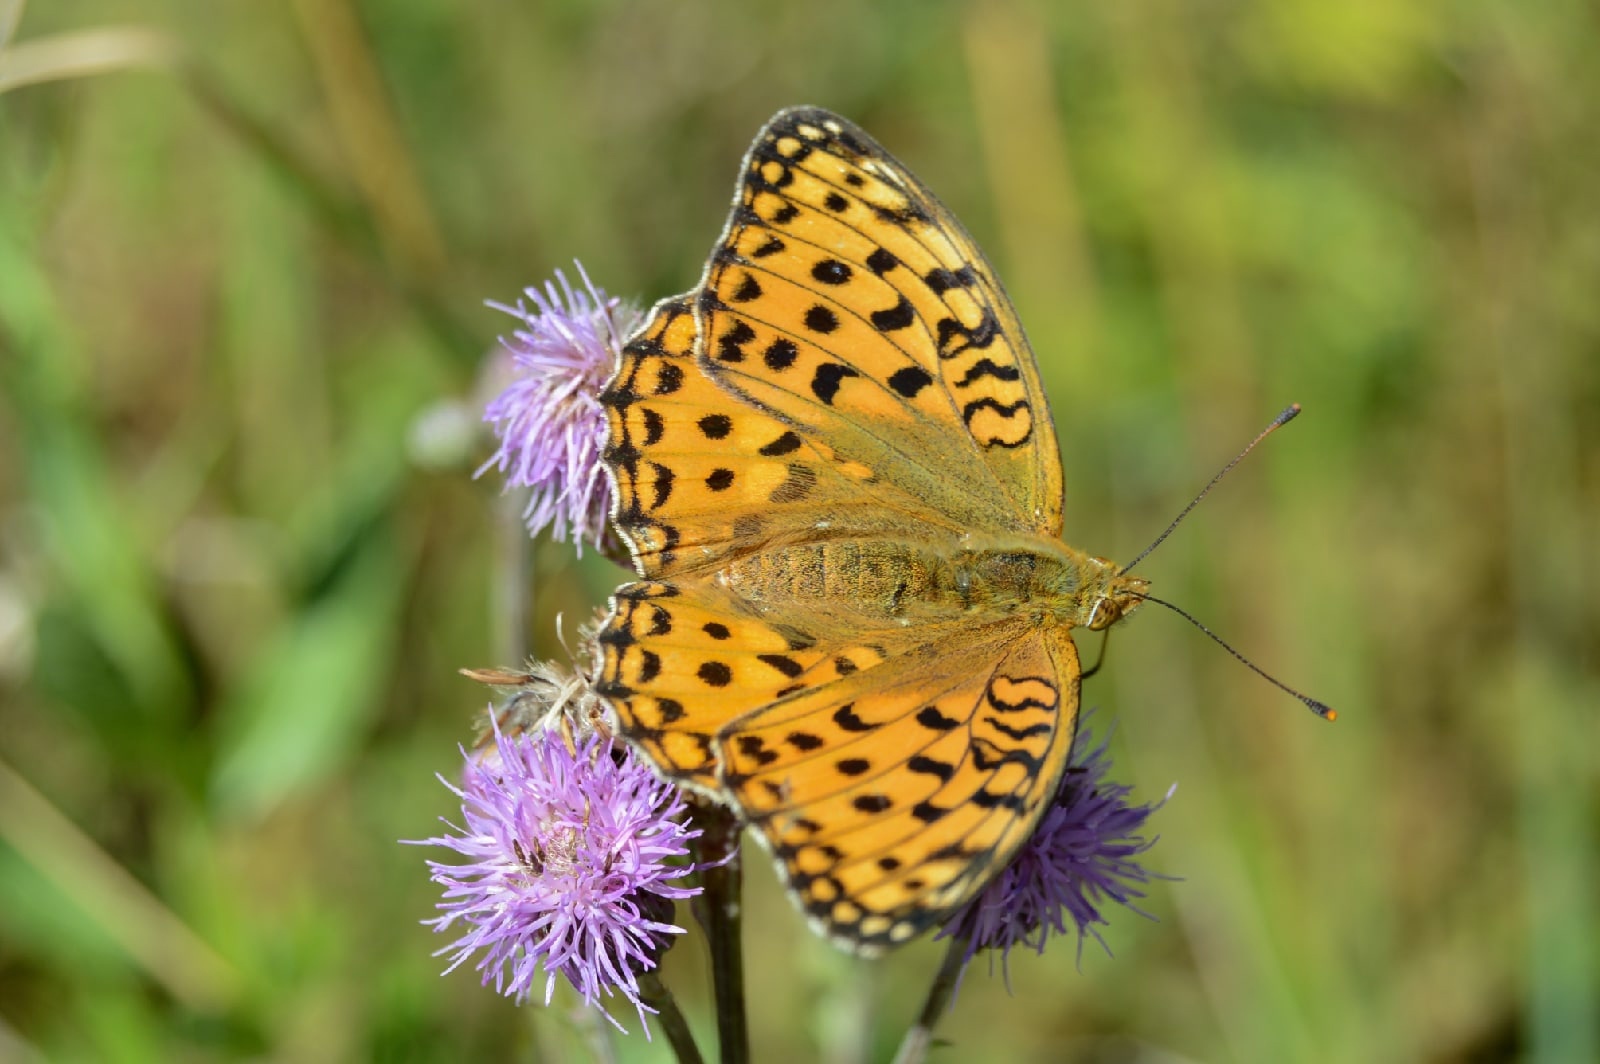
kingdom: Animalia
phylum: Arthropoda
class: Insecta
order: Lepidoptera
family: Nymphalidae
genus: Fabriciana
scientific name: Fabriciana adippe
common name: High brown fritillary
